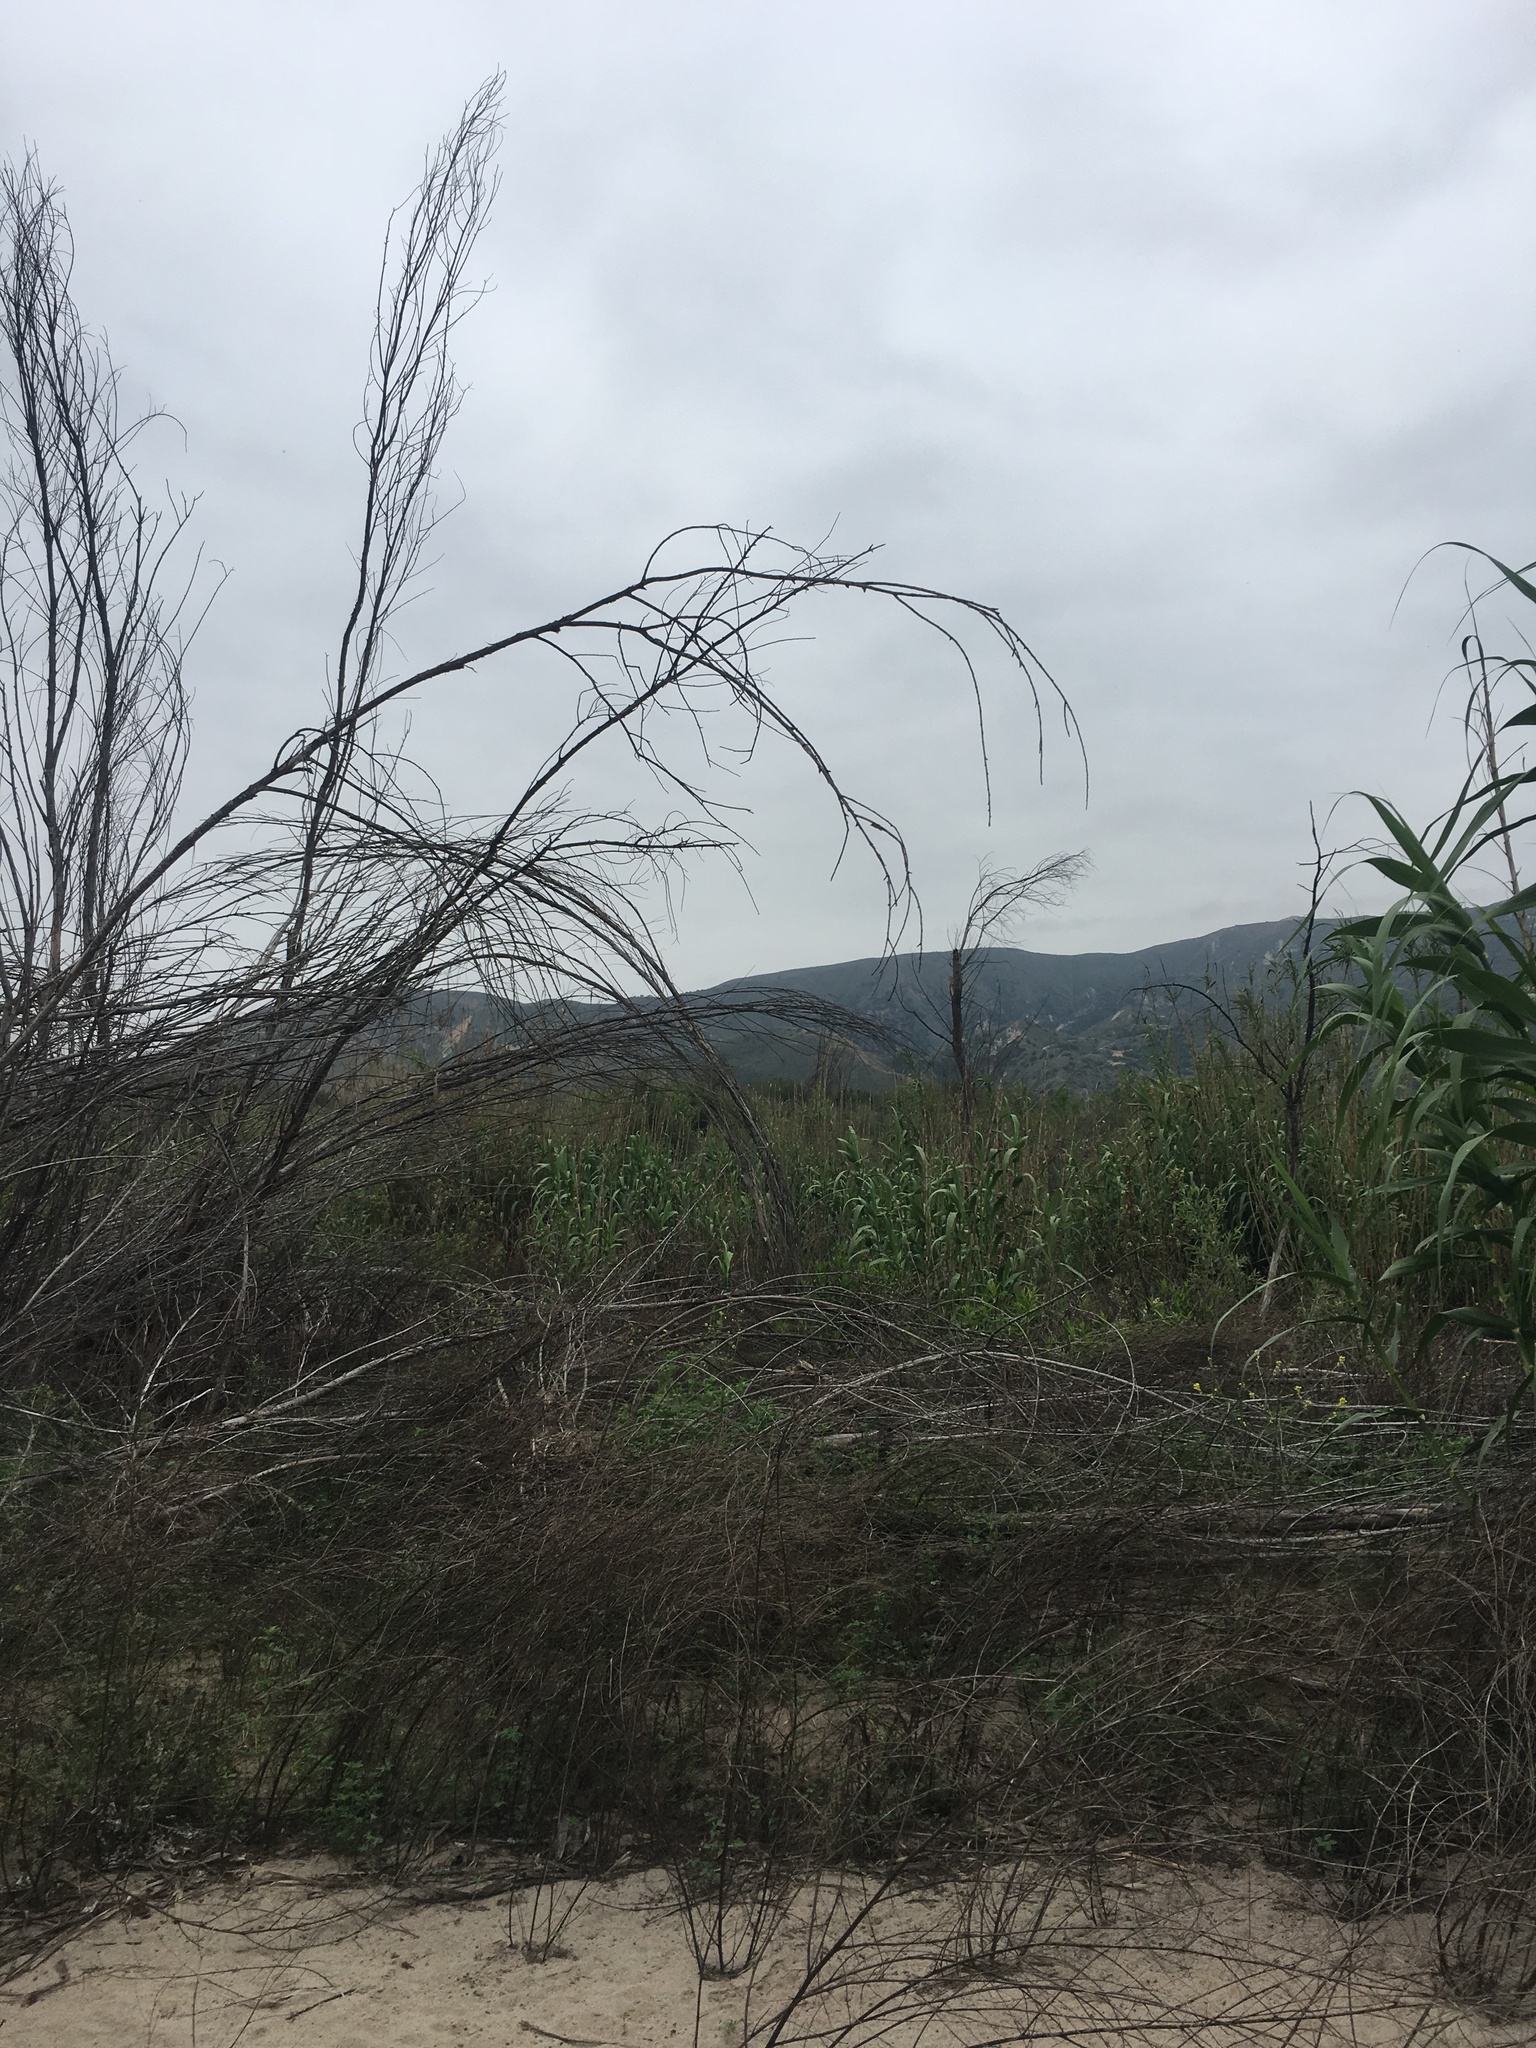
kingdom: Plantae
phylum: Tracheophyta
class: Liliopsida
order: Poales
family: Poaceae
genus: Arundo
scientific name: Arundo donax
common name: Giant reed
